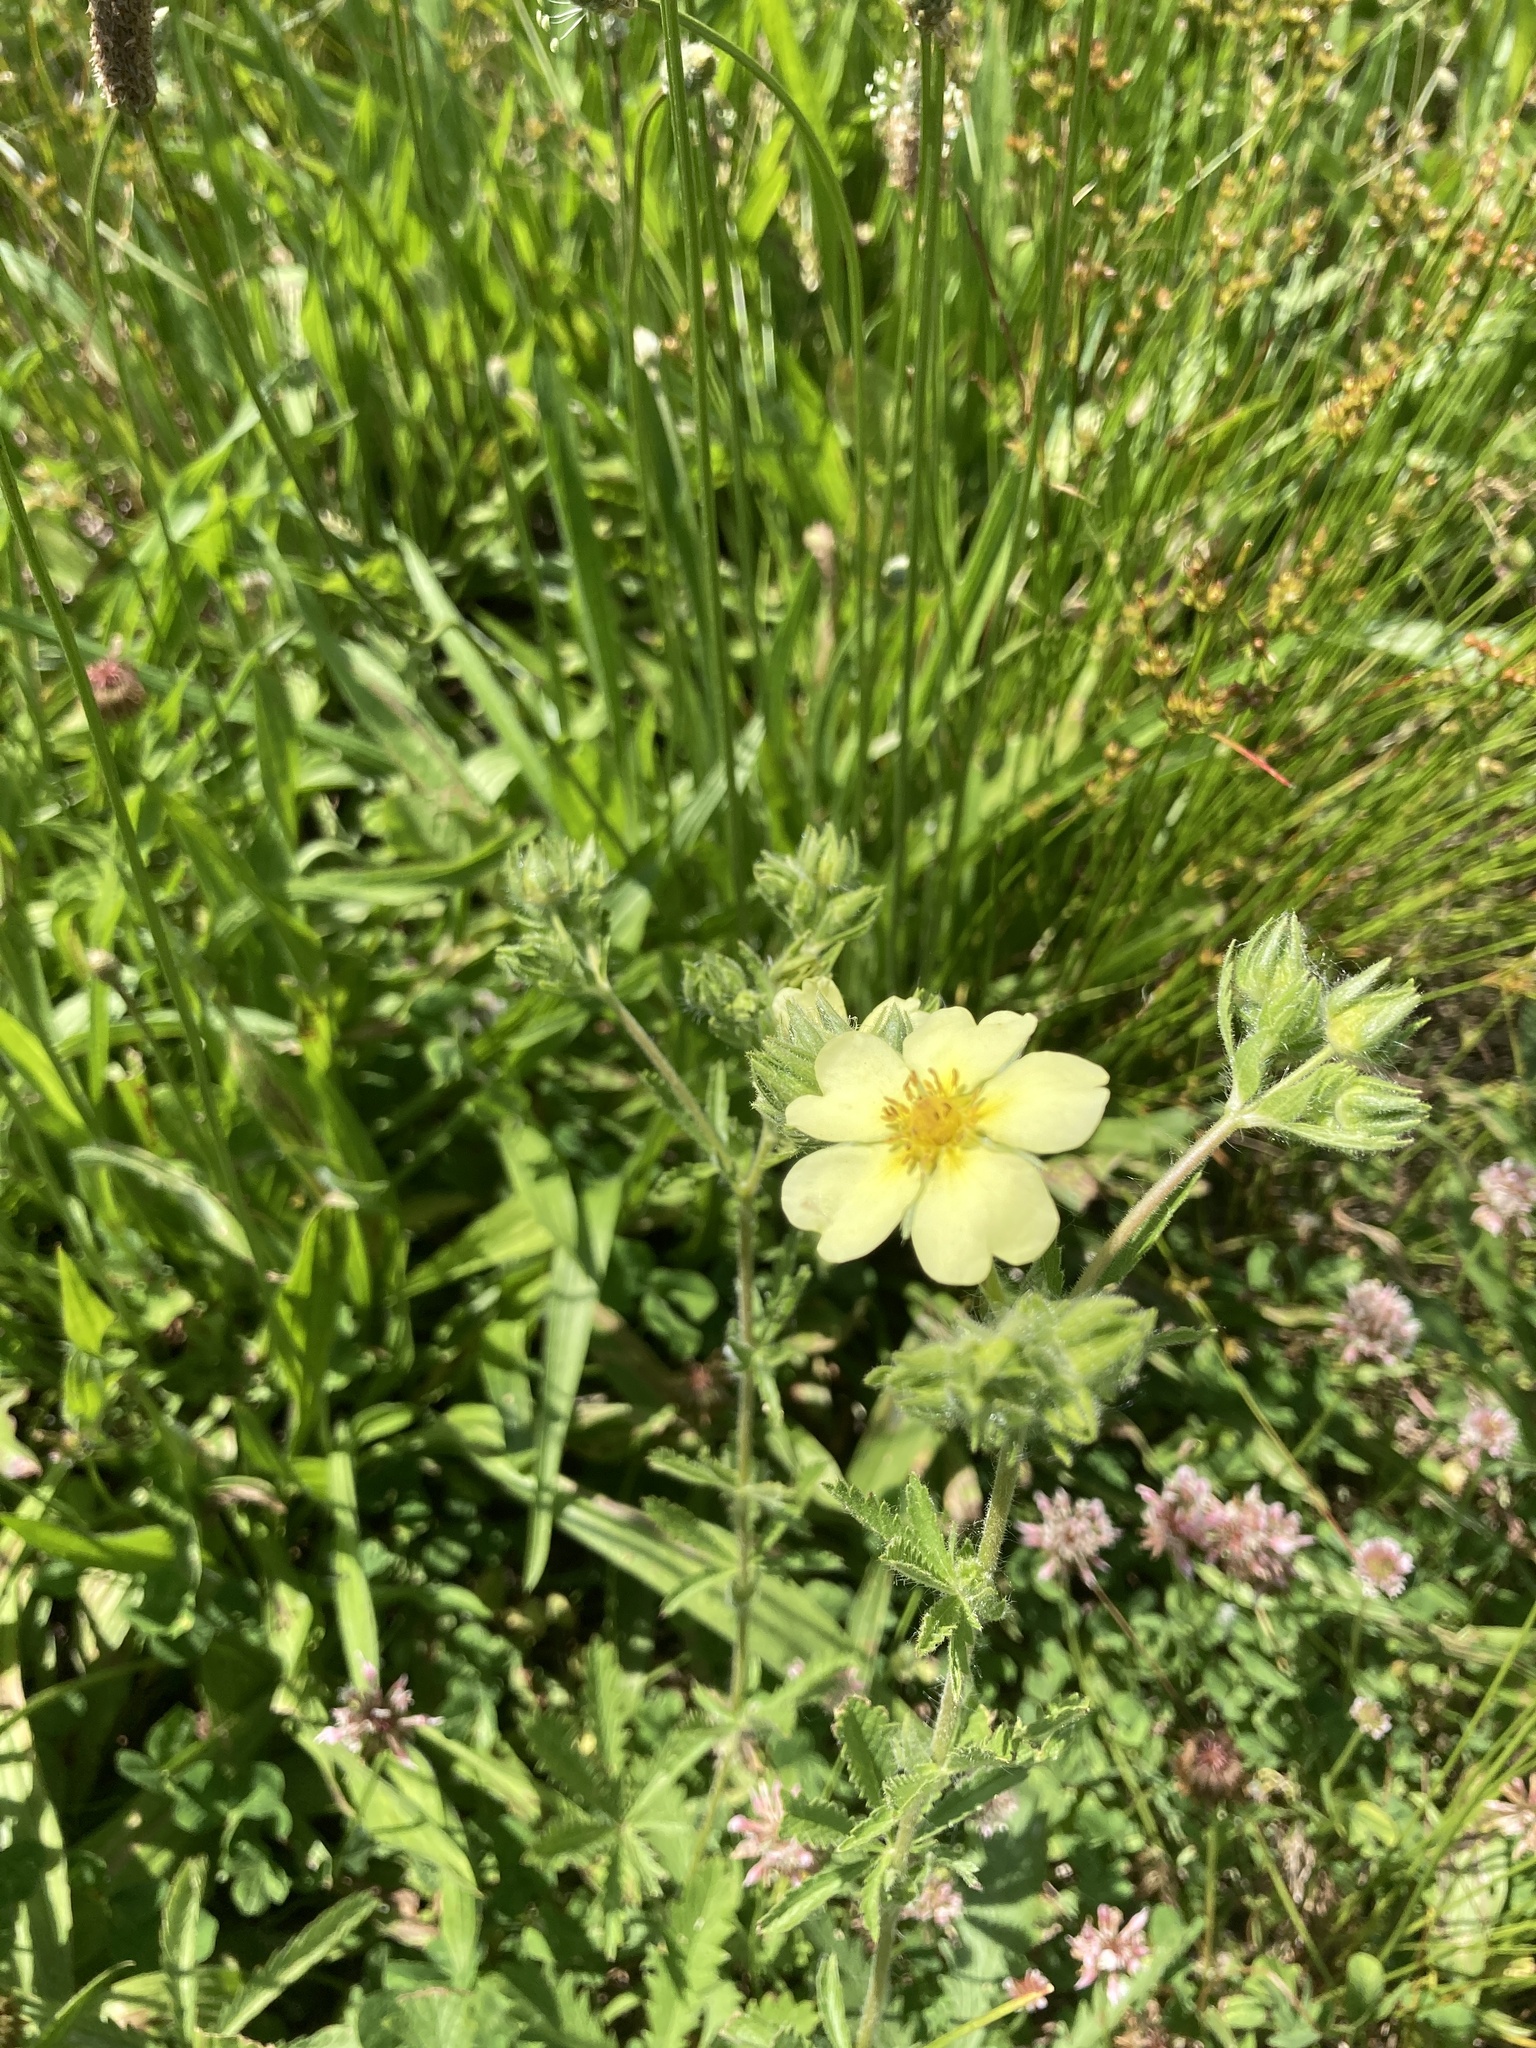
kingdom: Plantae
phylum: Tracheophyta
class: Magnoliopsida
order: Rosales
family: Rosaceae
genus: Potentilla
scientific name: Potentilla recta
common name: Sulphur cinquefoil
